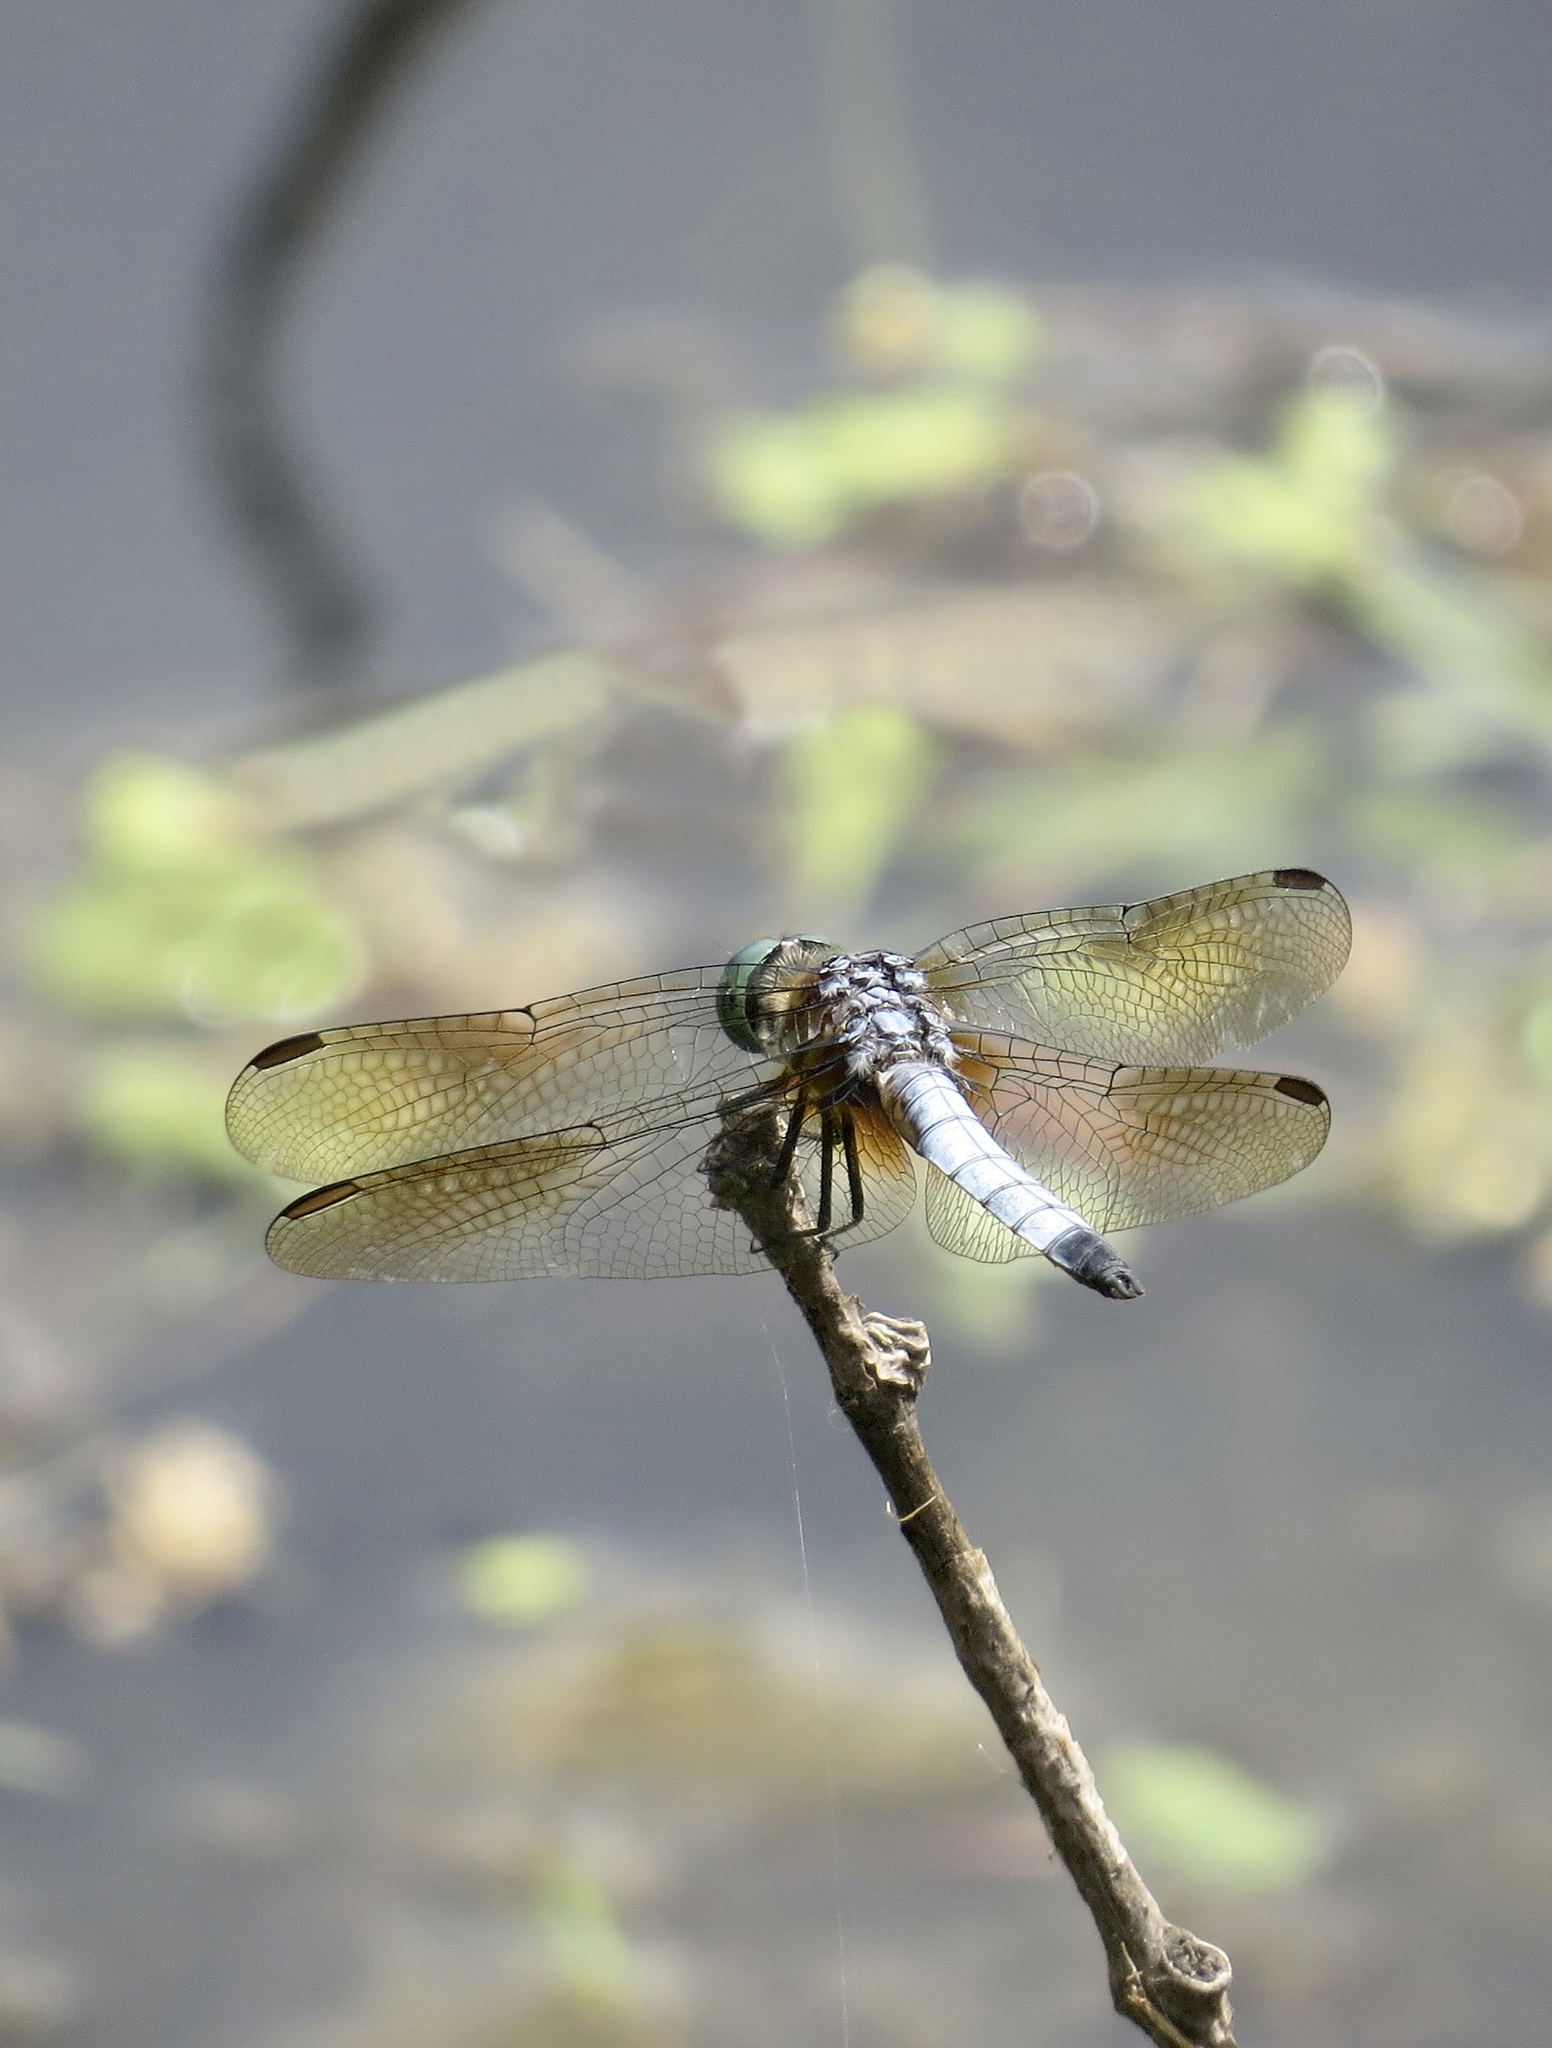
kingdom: Animalia
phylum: Arthropoda
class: Insecta
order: Odonata
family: Libellulidae
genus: Pachydiplax
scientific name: Pachydiplax longipennis
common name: Blue dasher
